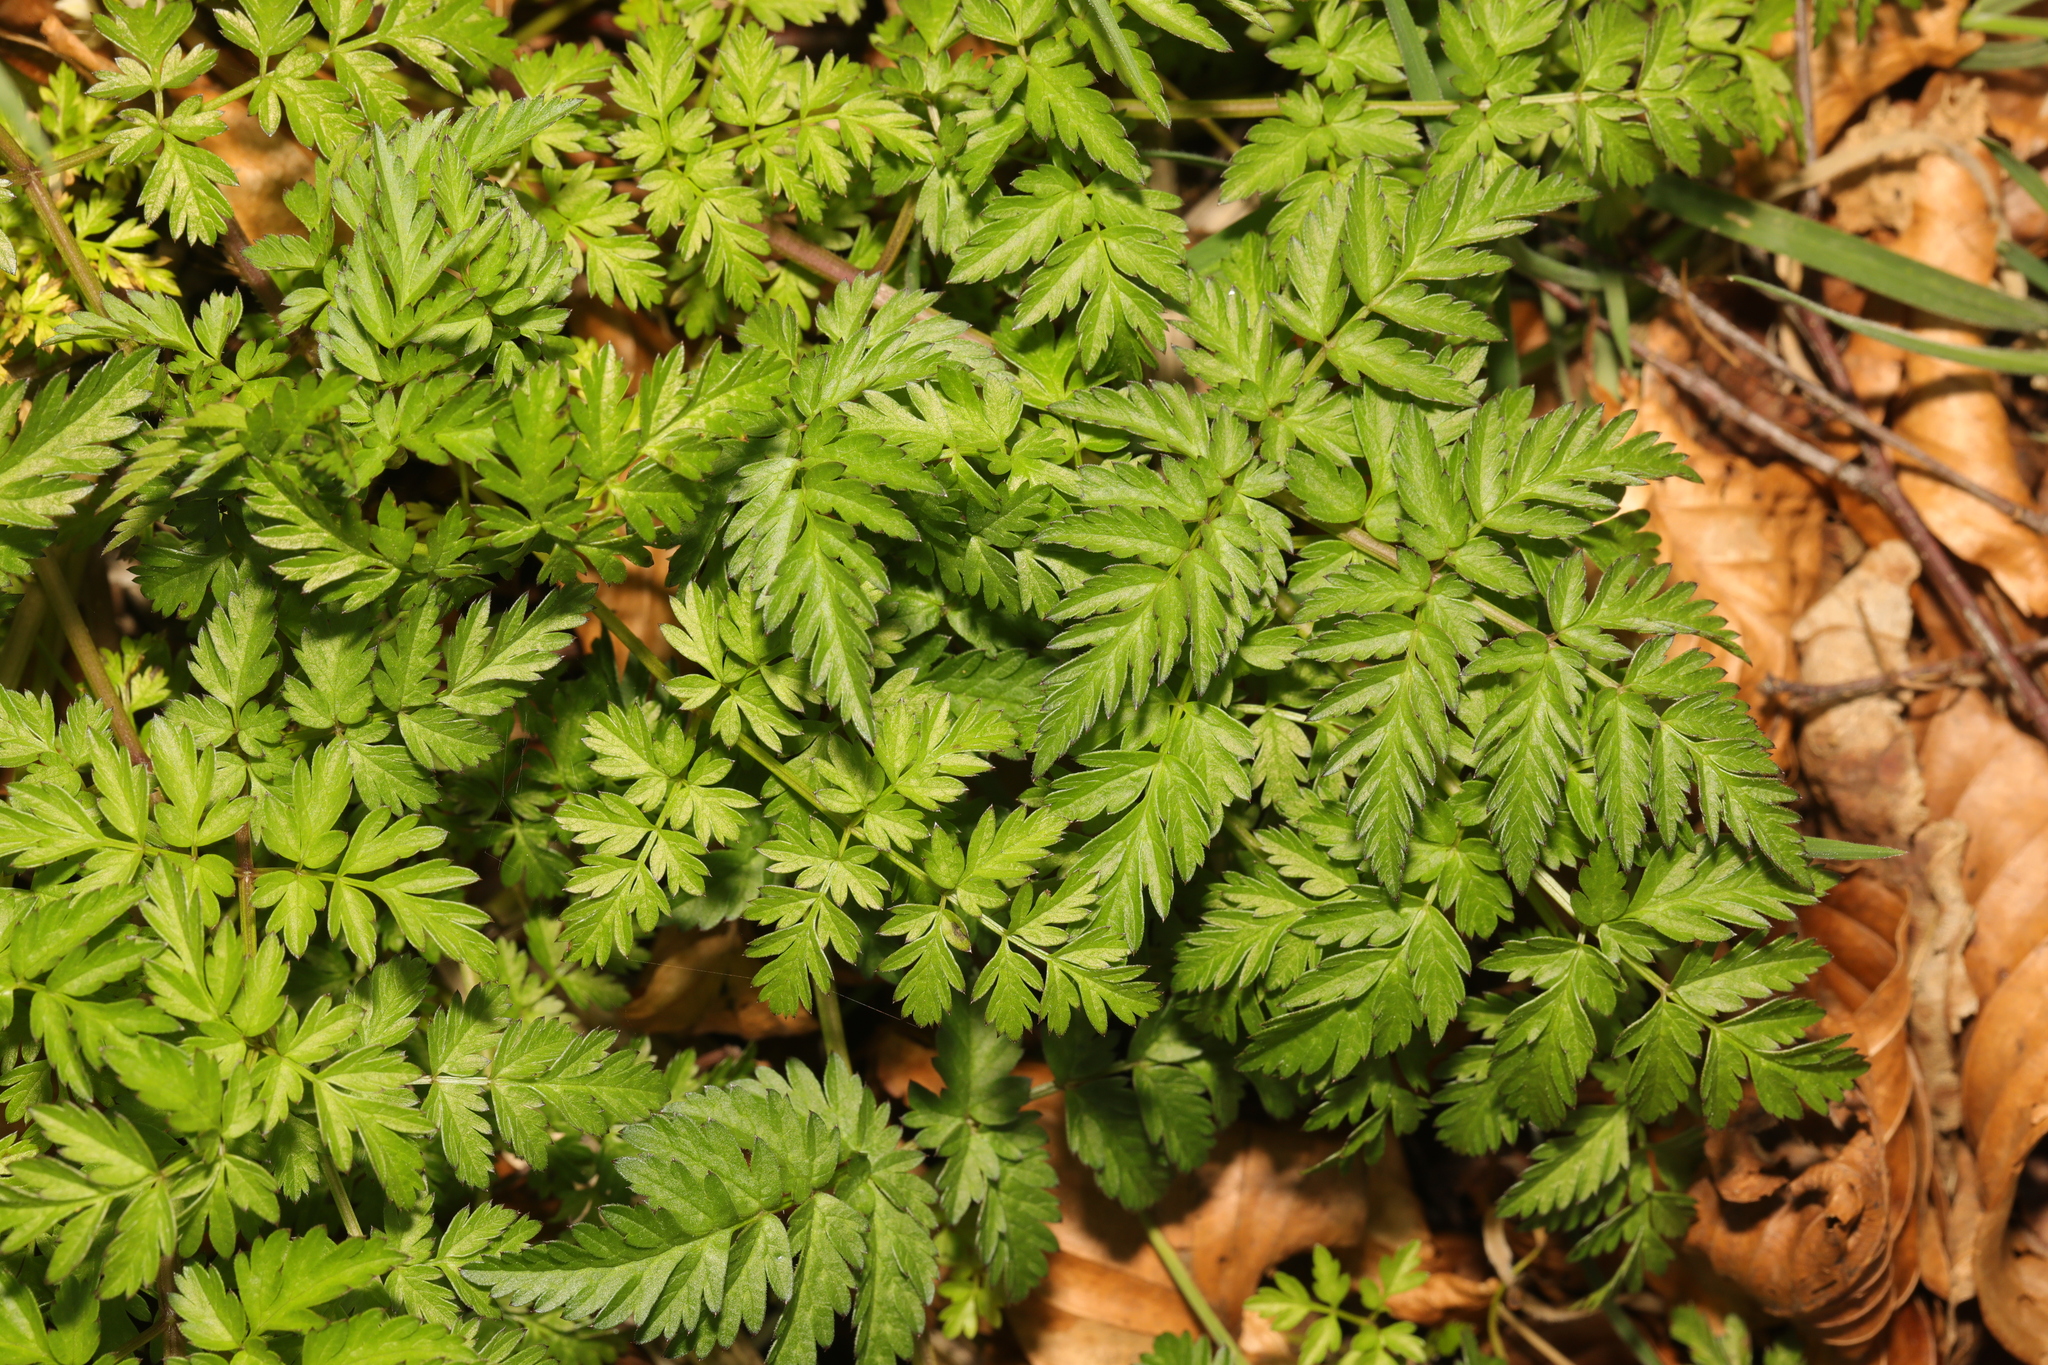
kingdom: Plantae
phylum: Tracheophyta
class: Magnoliopsida
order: Apiales
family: Apiaceae
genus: Anthriscus
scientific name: Anthriscus sylvestris
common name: Cow parsley
